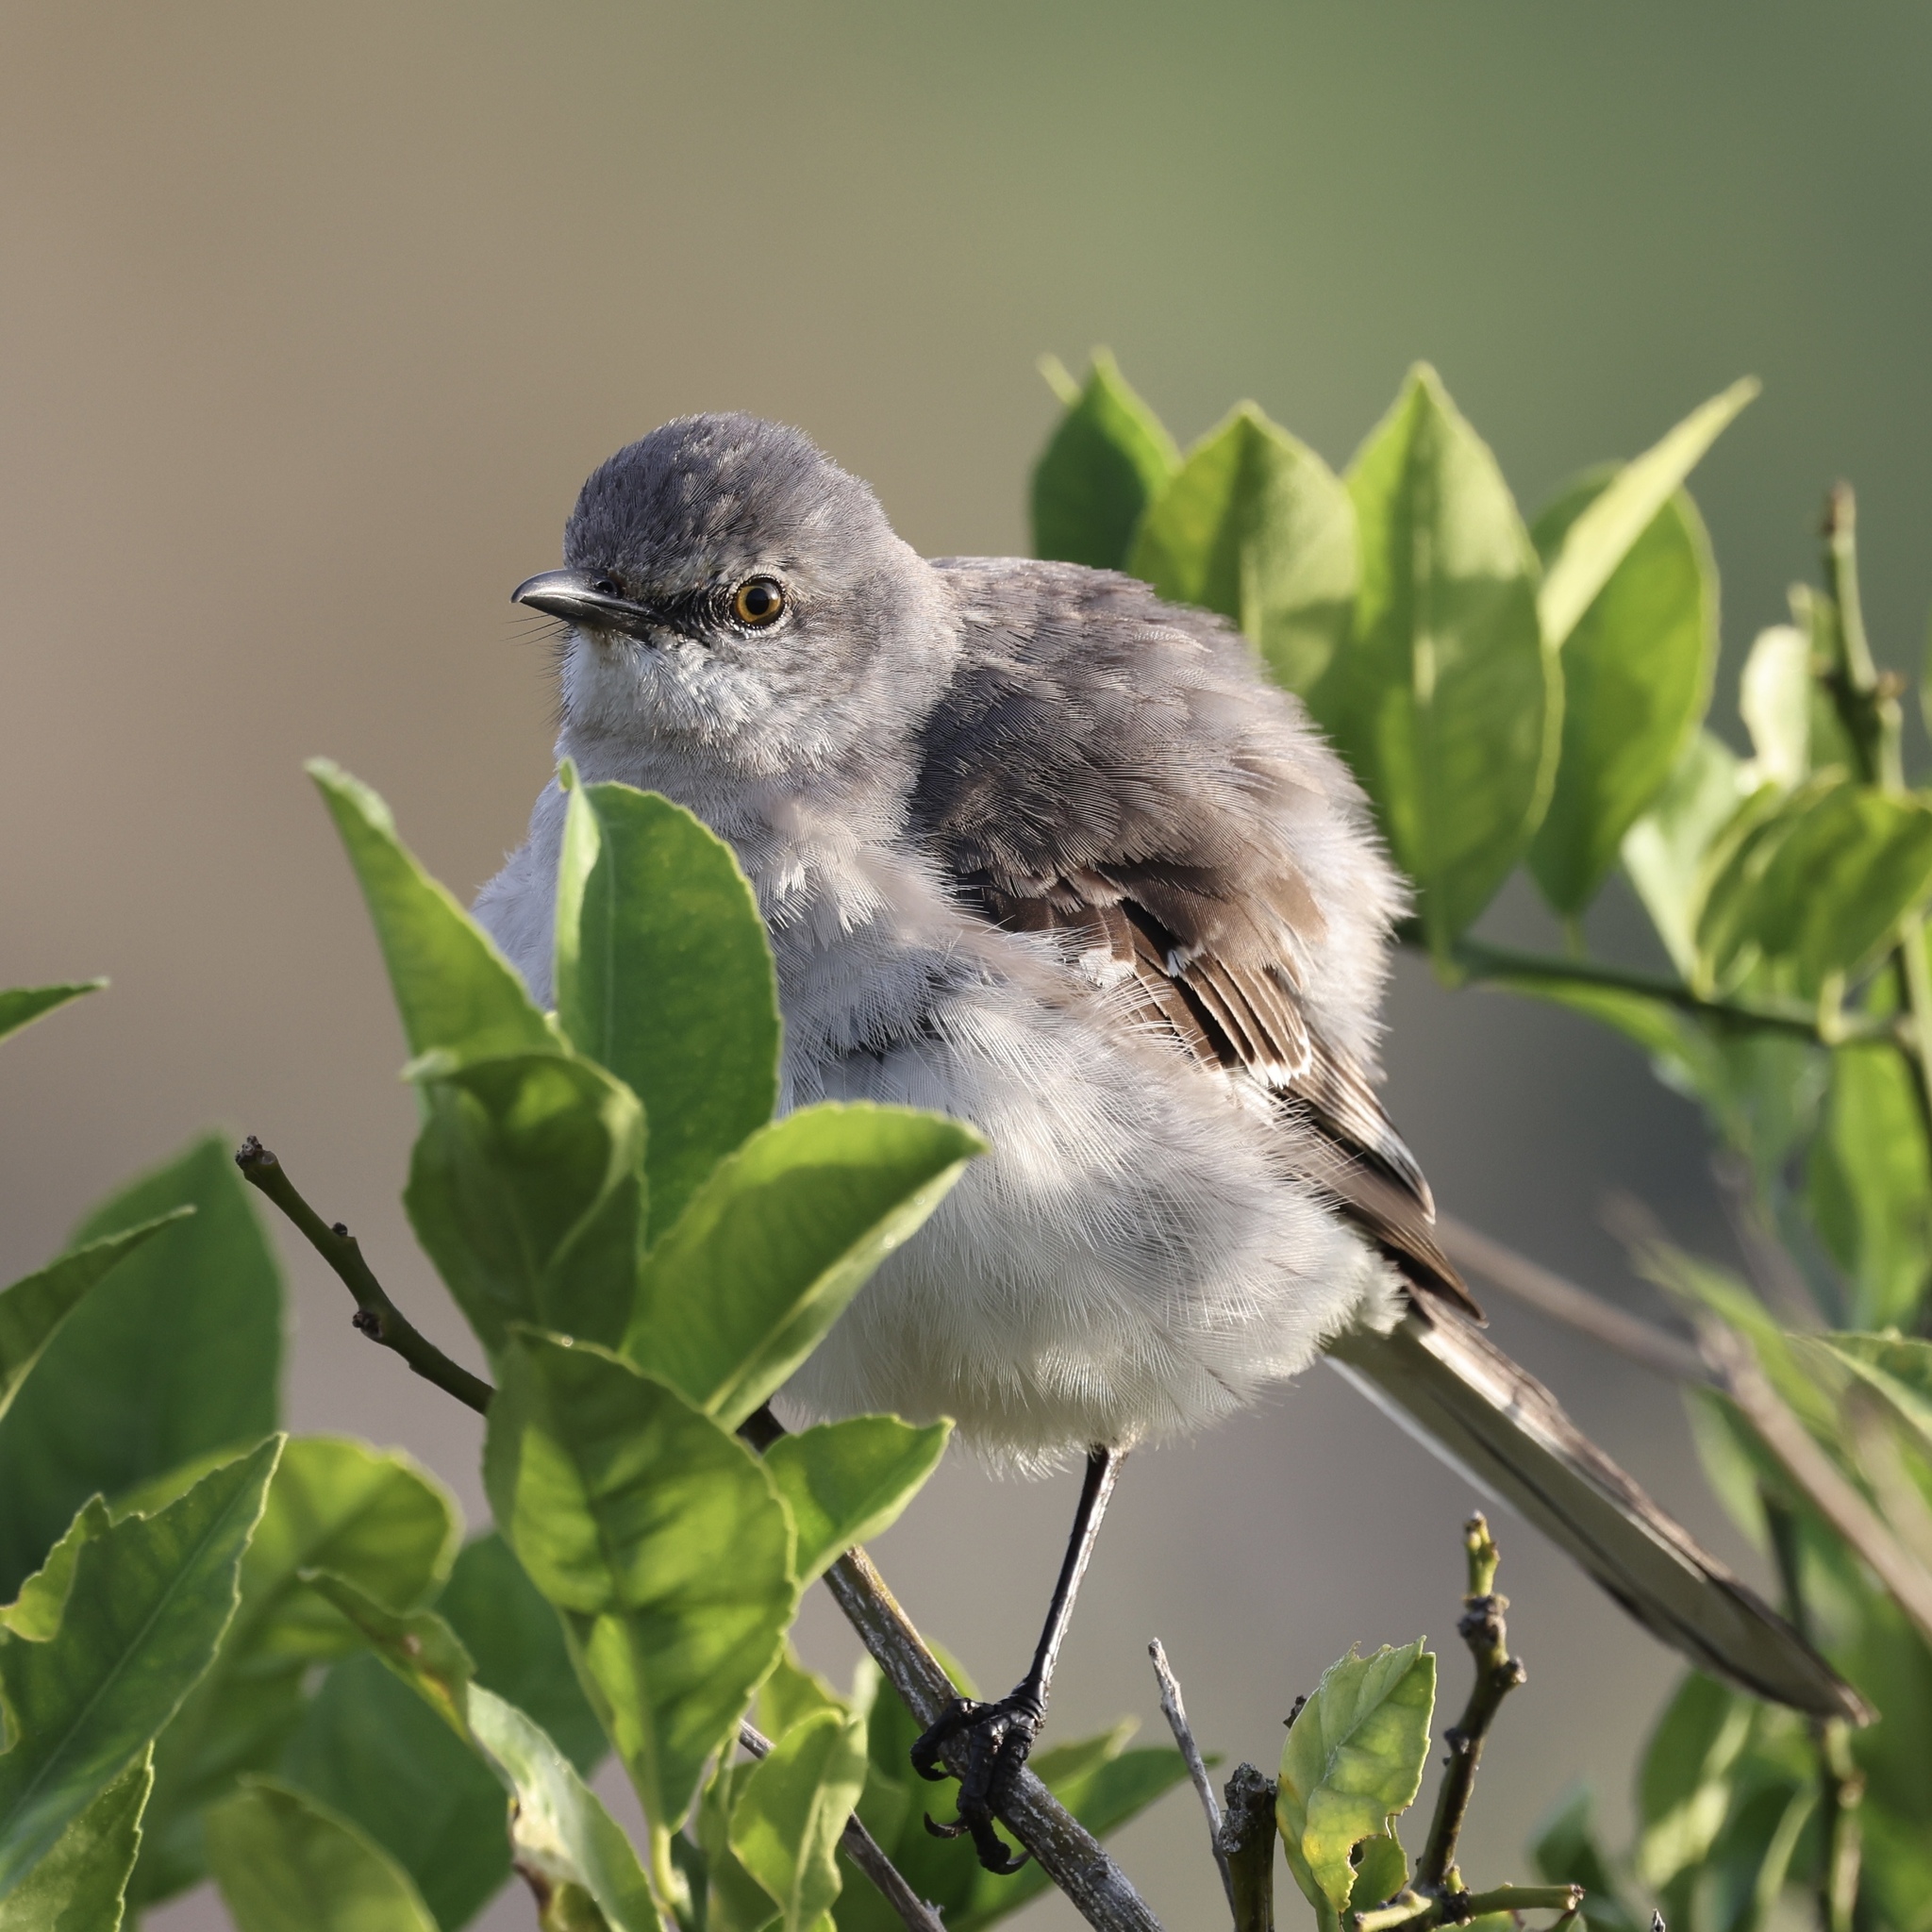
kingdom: Animalia
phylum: Chordata
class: Aves
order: Passeriformes
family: Mimidae
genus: Mimus
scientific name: Mimus polyglottos
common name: Northern mockingbird
